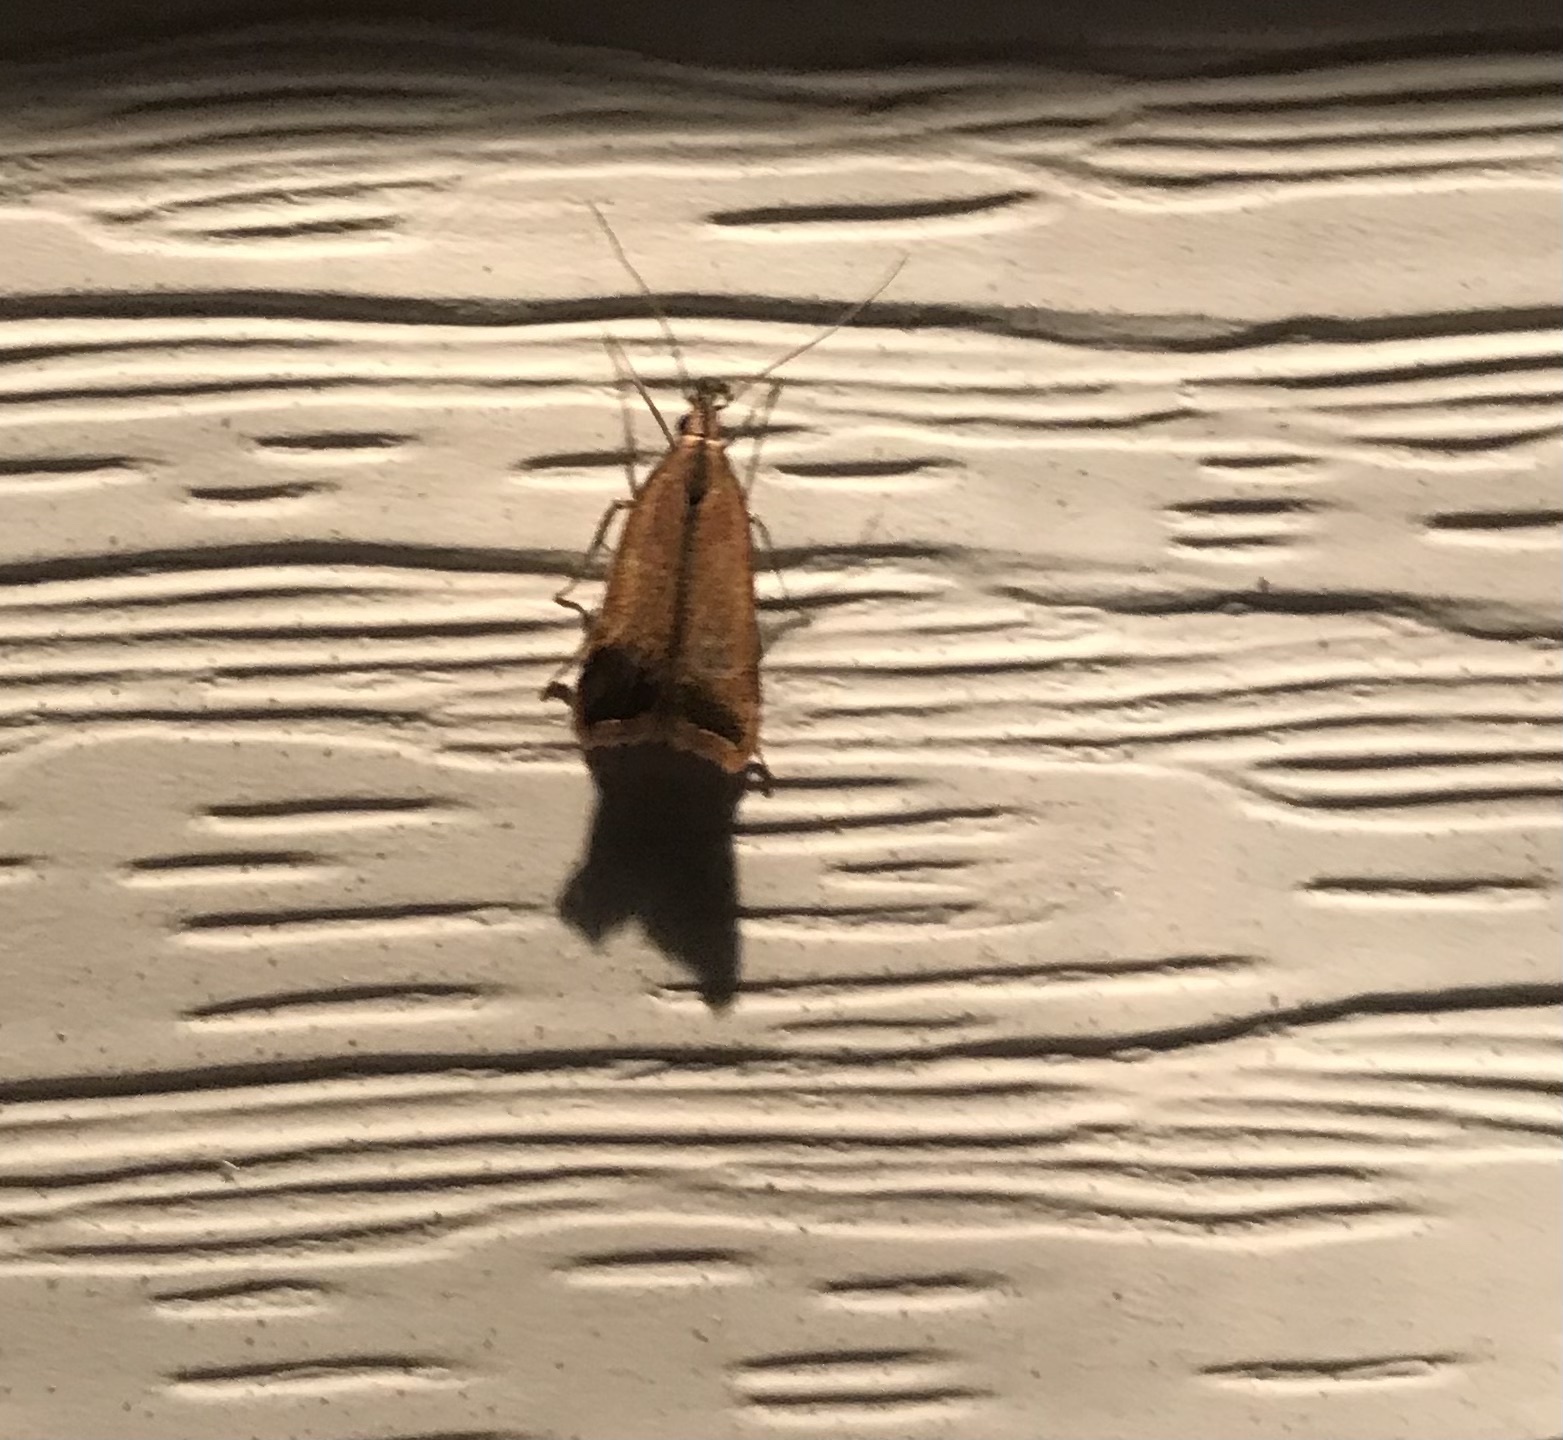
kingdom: Animalia
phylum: Arthropoda
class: Insecta
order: Lepidoptera
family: Gelechiidae
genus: Dichomeris
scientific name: Dichomeris heriguronis
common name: Black-edged dichomeris moth
